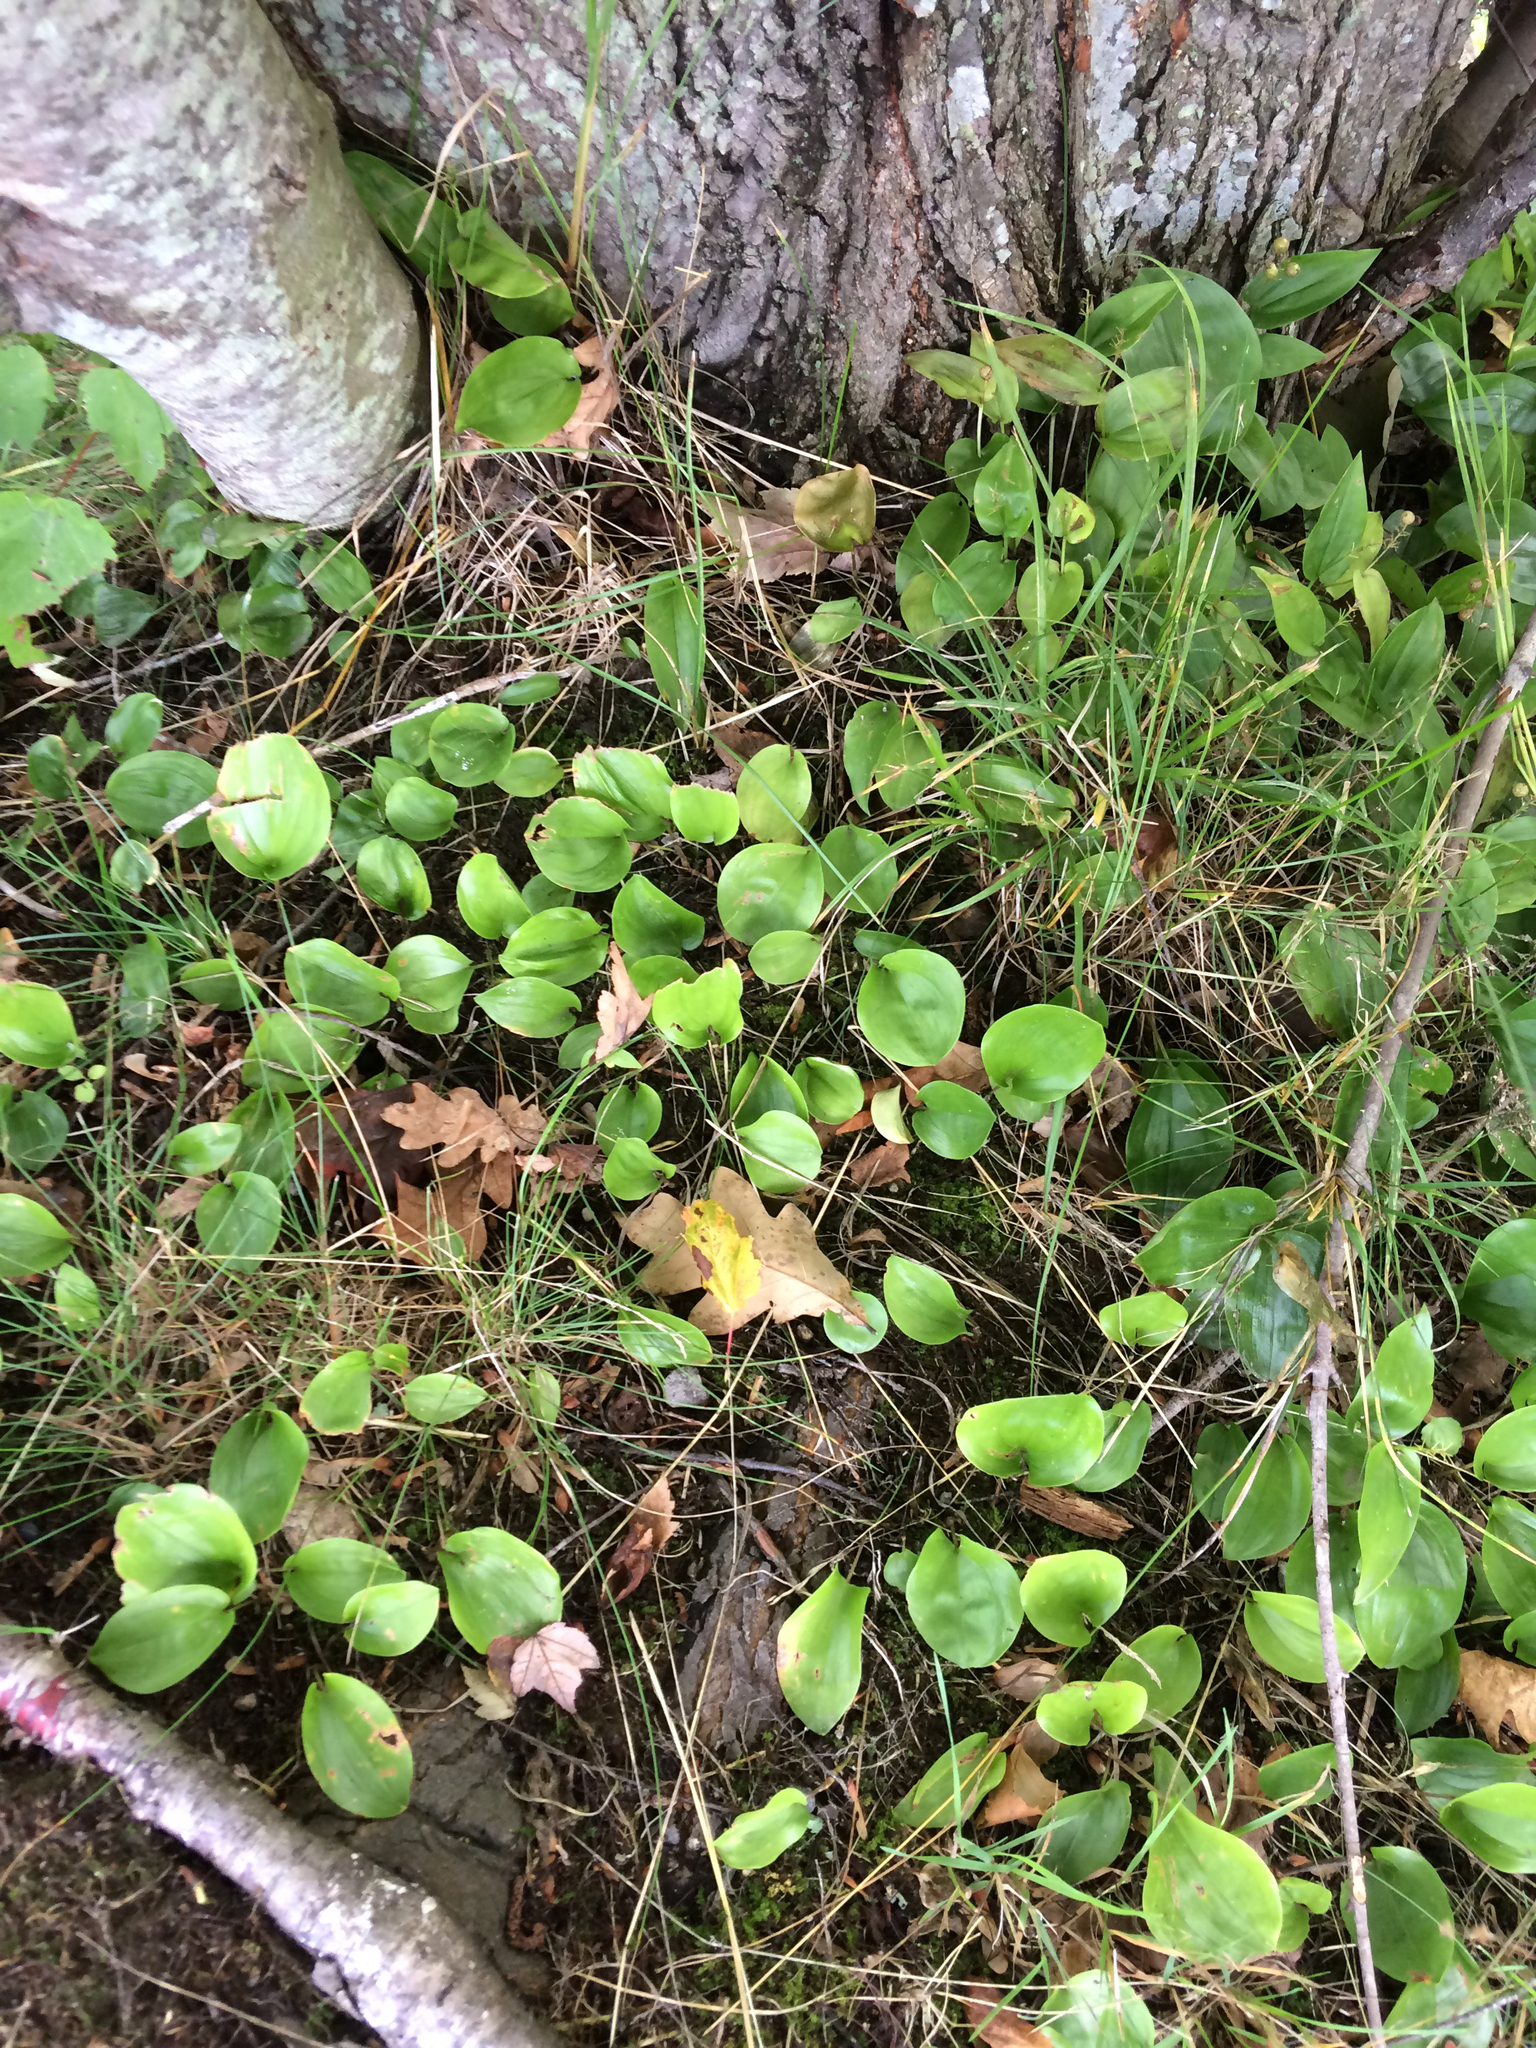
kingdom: Plantae
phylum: Tracheophyta
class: Liliopsida
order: Asparagales
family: Asparagaceae
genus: Maianthemum
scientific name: Maianthemum canadense
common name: False lily-of-the-valley
